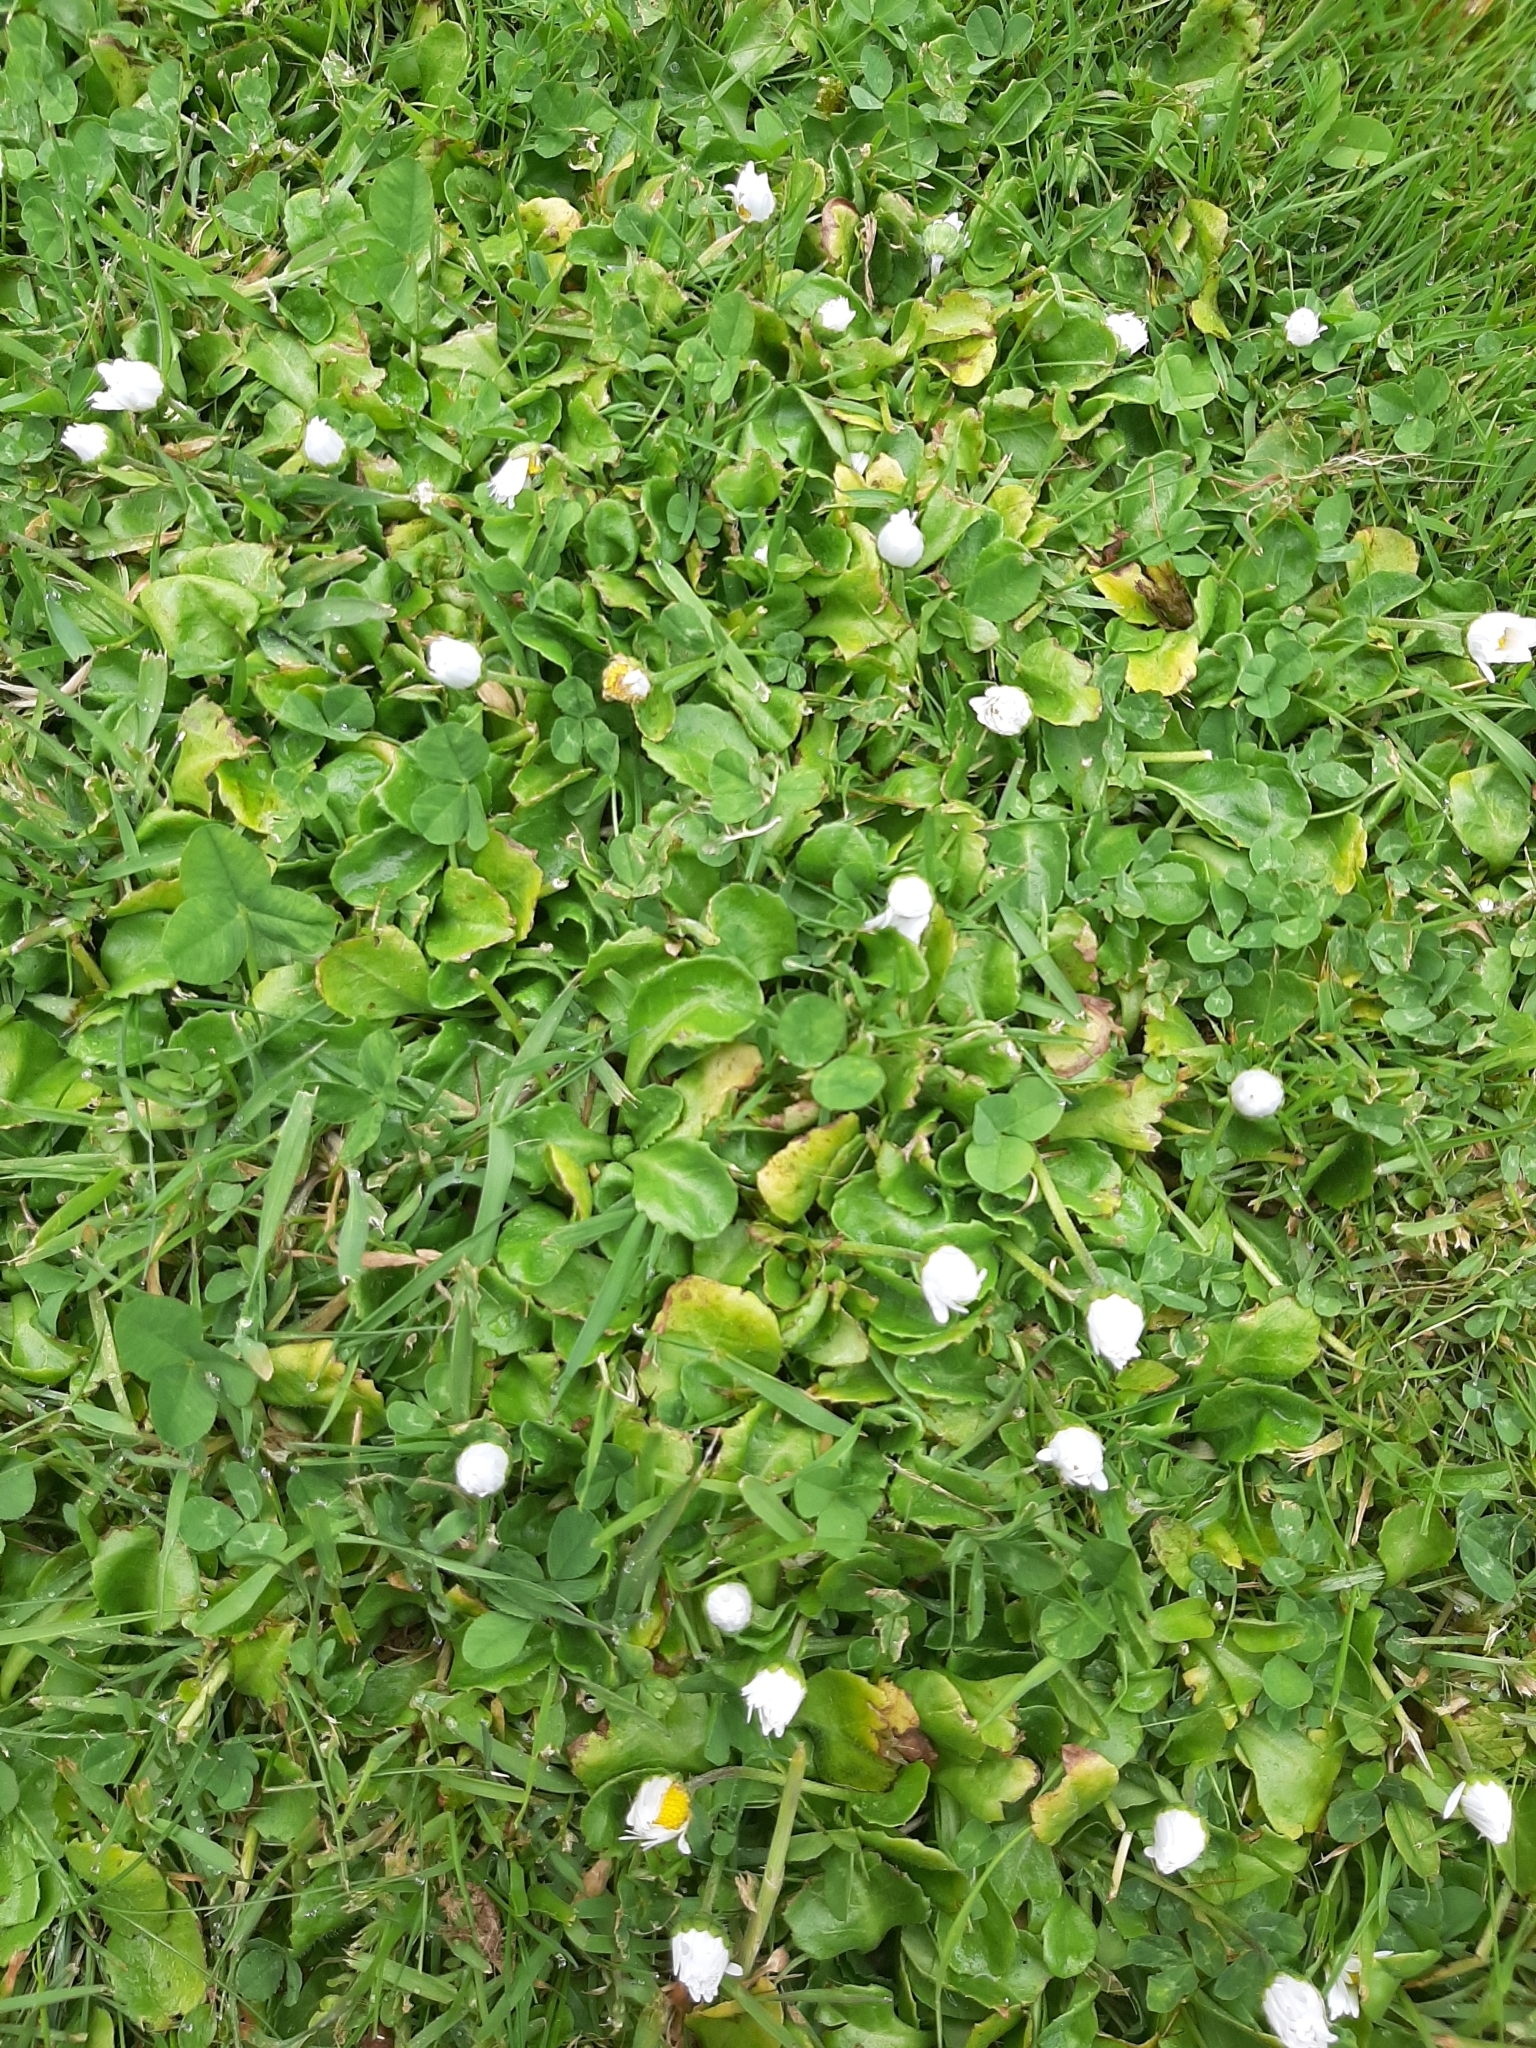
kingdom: Plantae
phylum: Tracheophyta
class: Magnoliopsida
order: Asterales
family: Asteraceae
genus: Bellis
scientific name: Bellis perennis
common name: Lawndaisy
